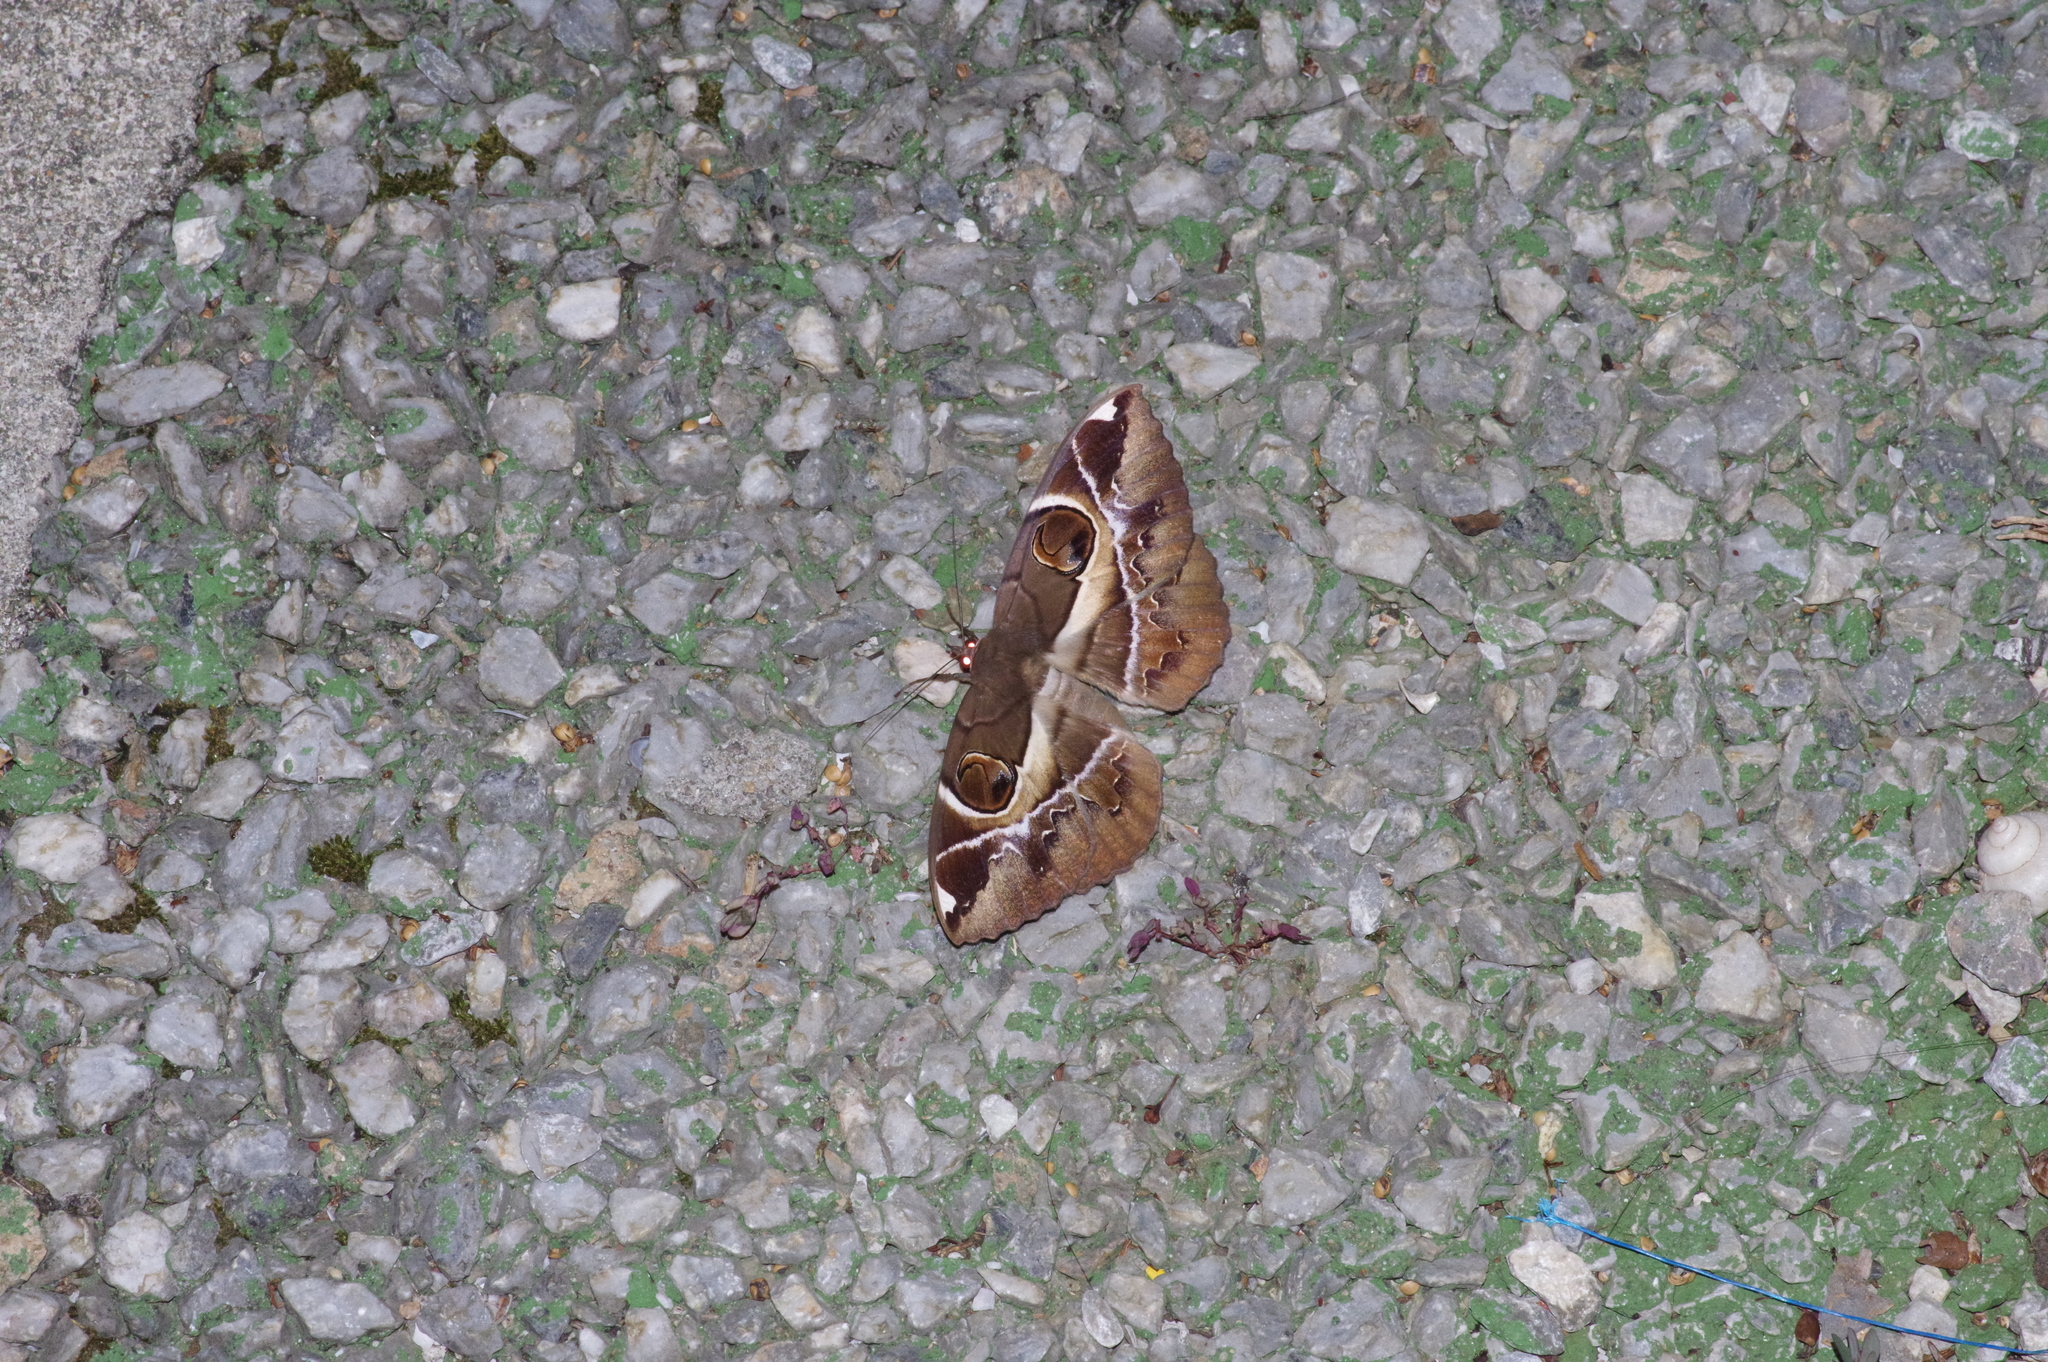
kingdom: Animalia
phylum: Arthropoda
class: Insecta
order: Lepidoptera
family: Erebidae
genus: Erebus
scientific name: Erebus ephesperis
